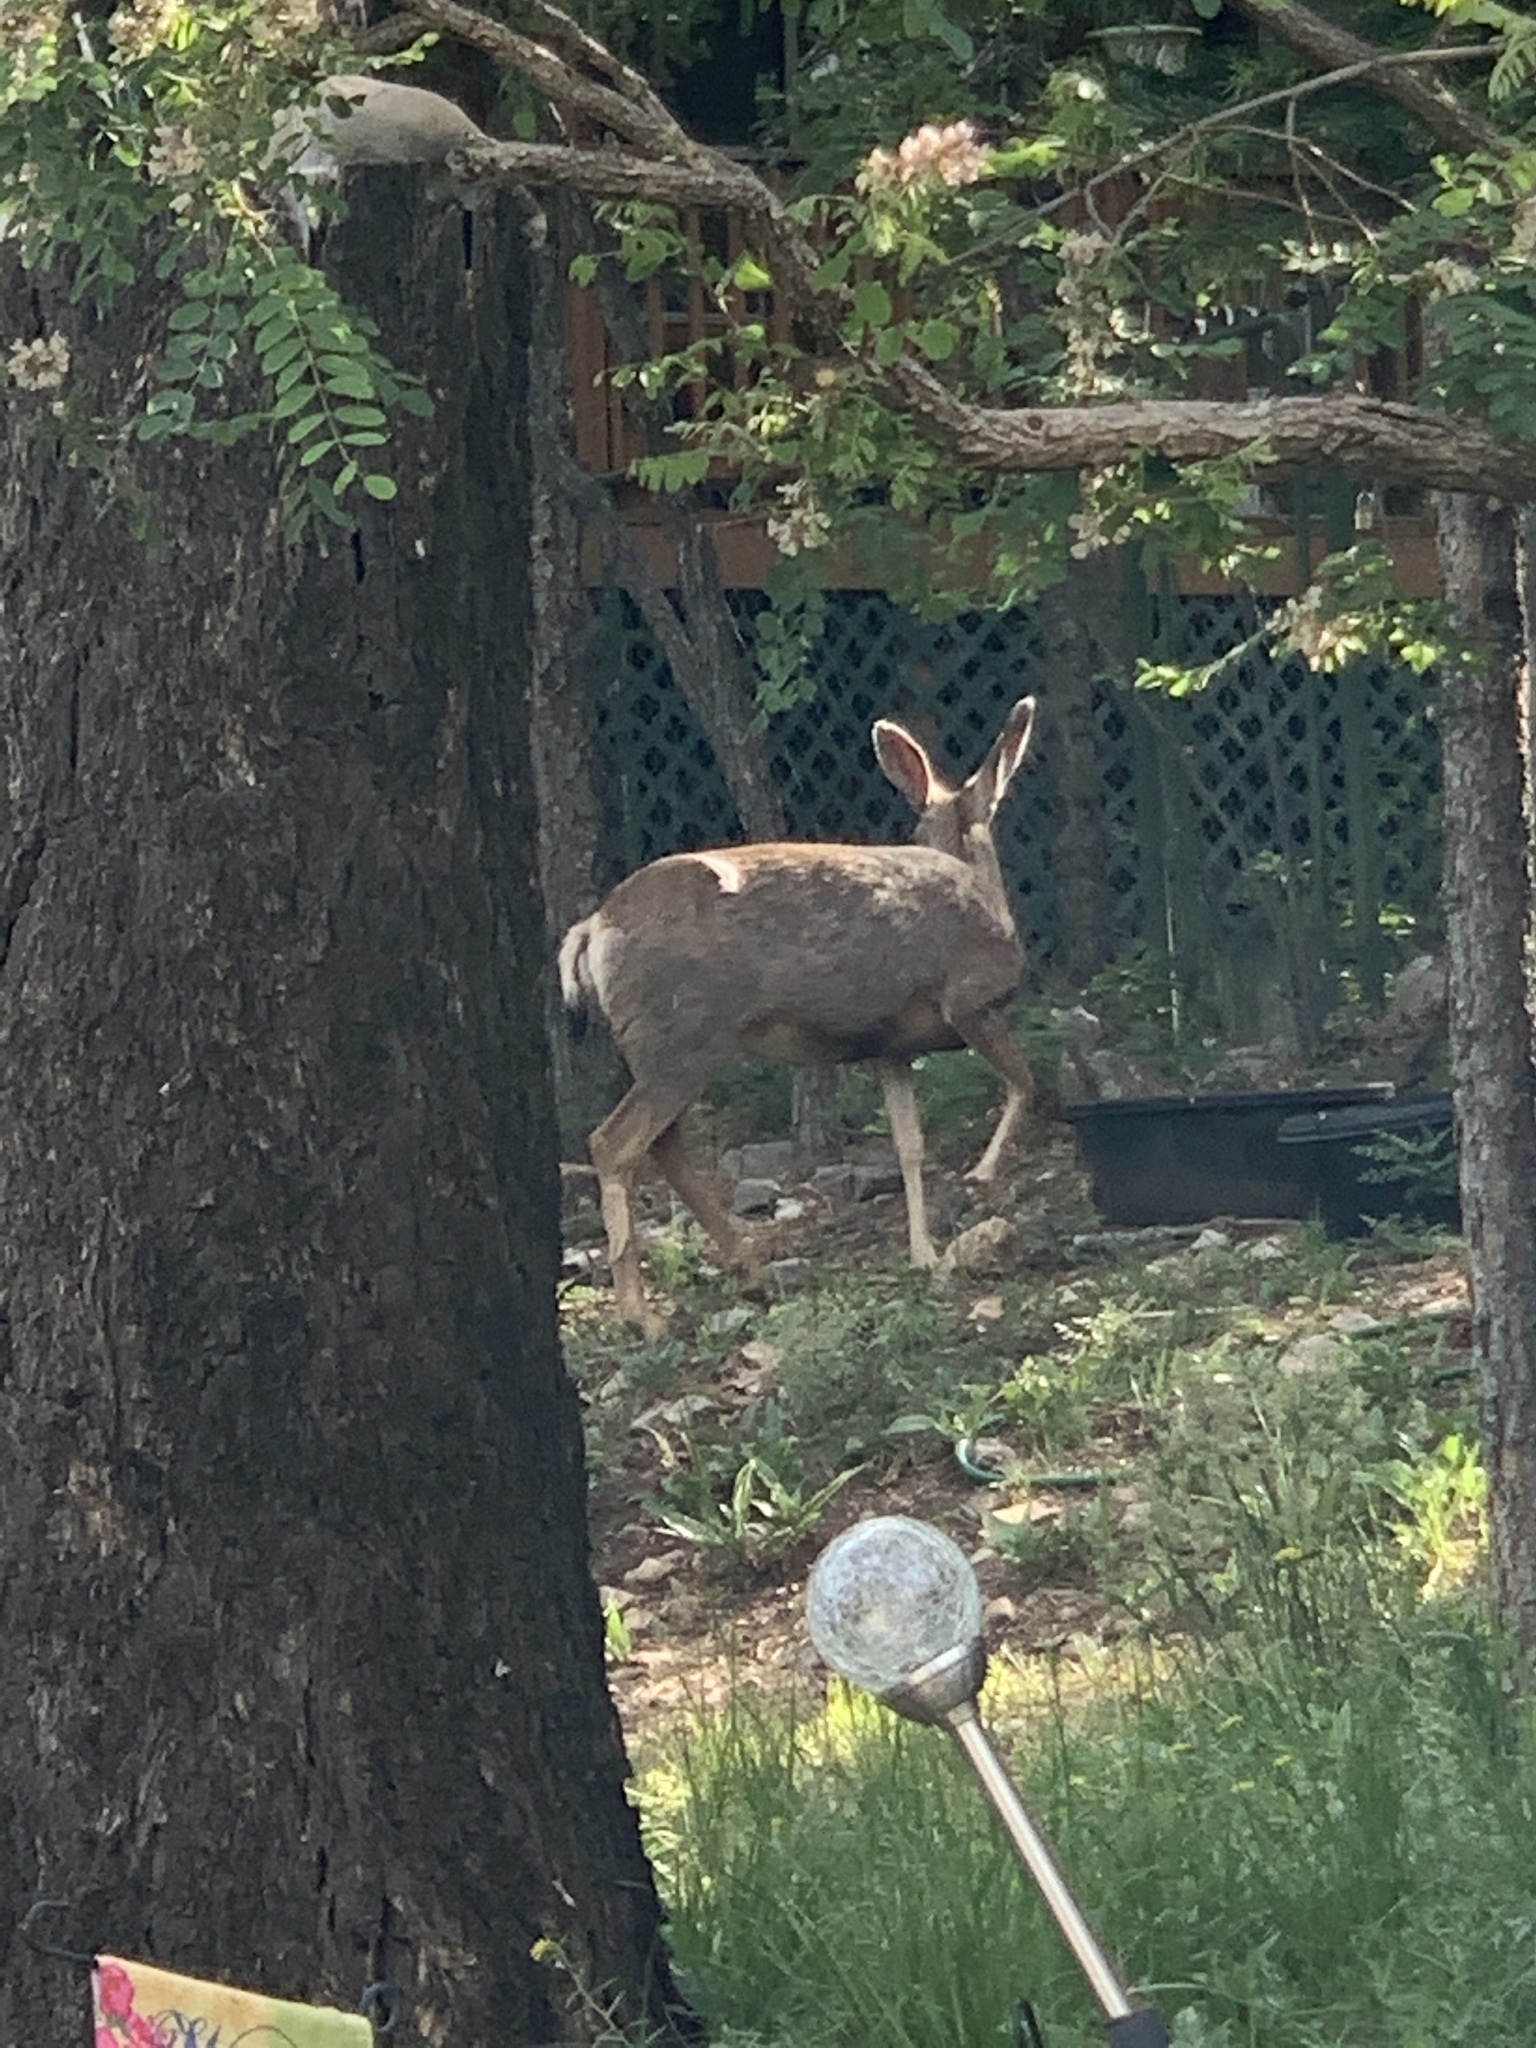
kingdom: Animalia
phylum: Chordata
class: Mammalia
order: Artiodactyla
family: Cervidae
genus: Odocoileus
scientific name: Odocoileus hemionus
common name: Mule deer
